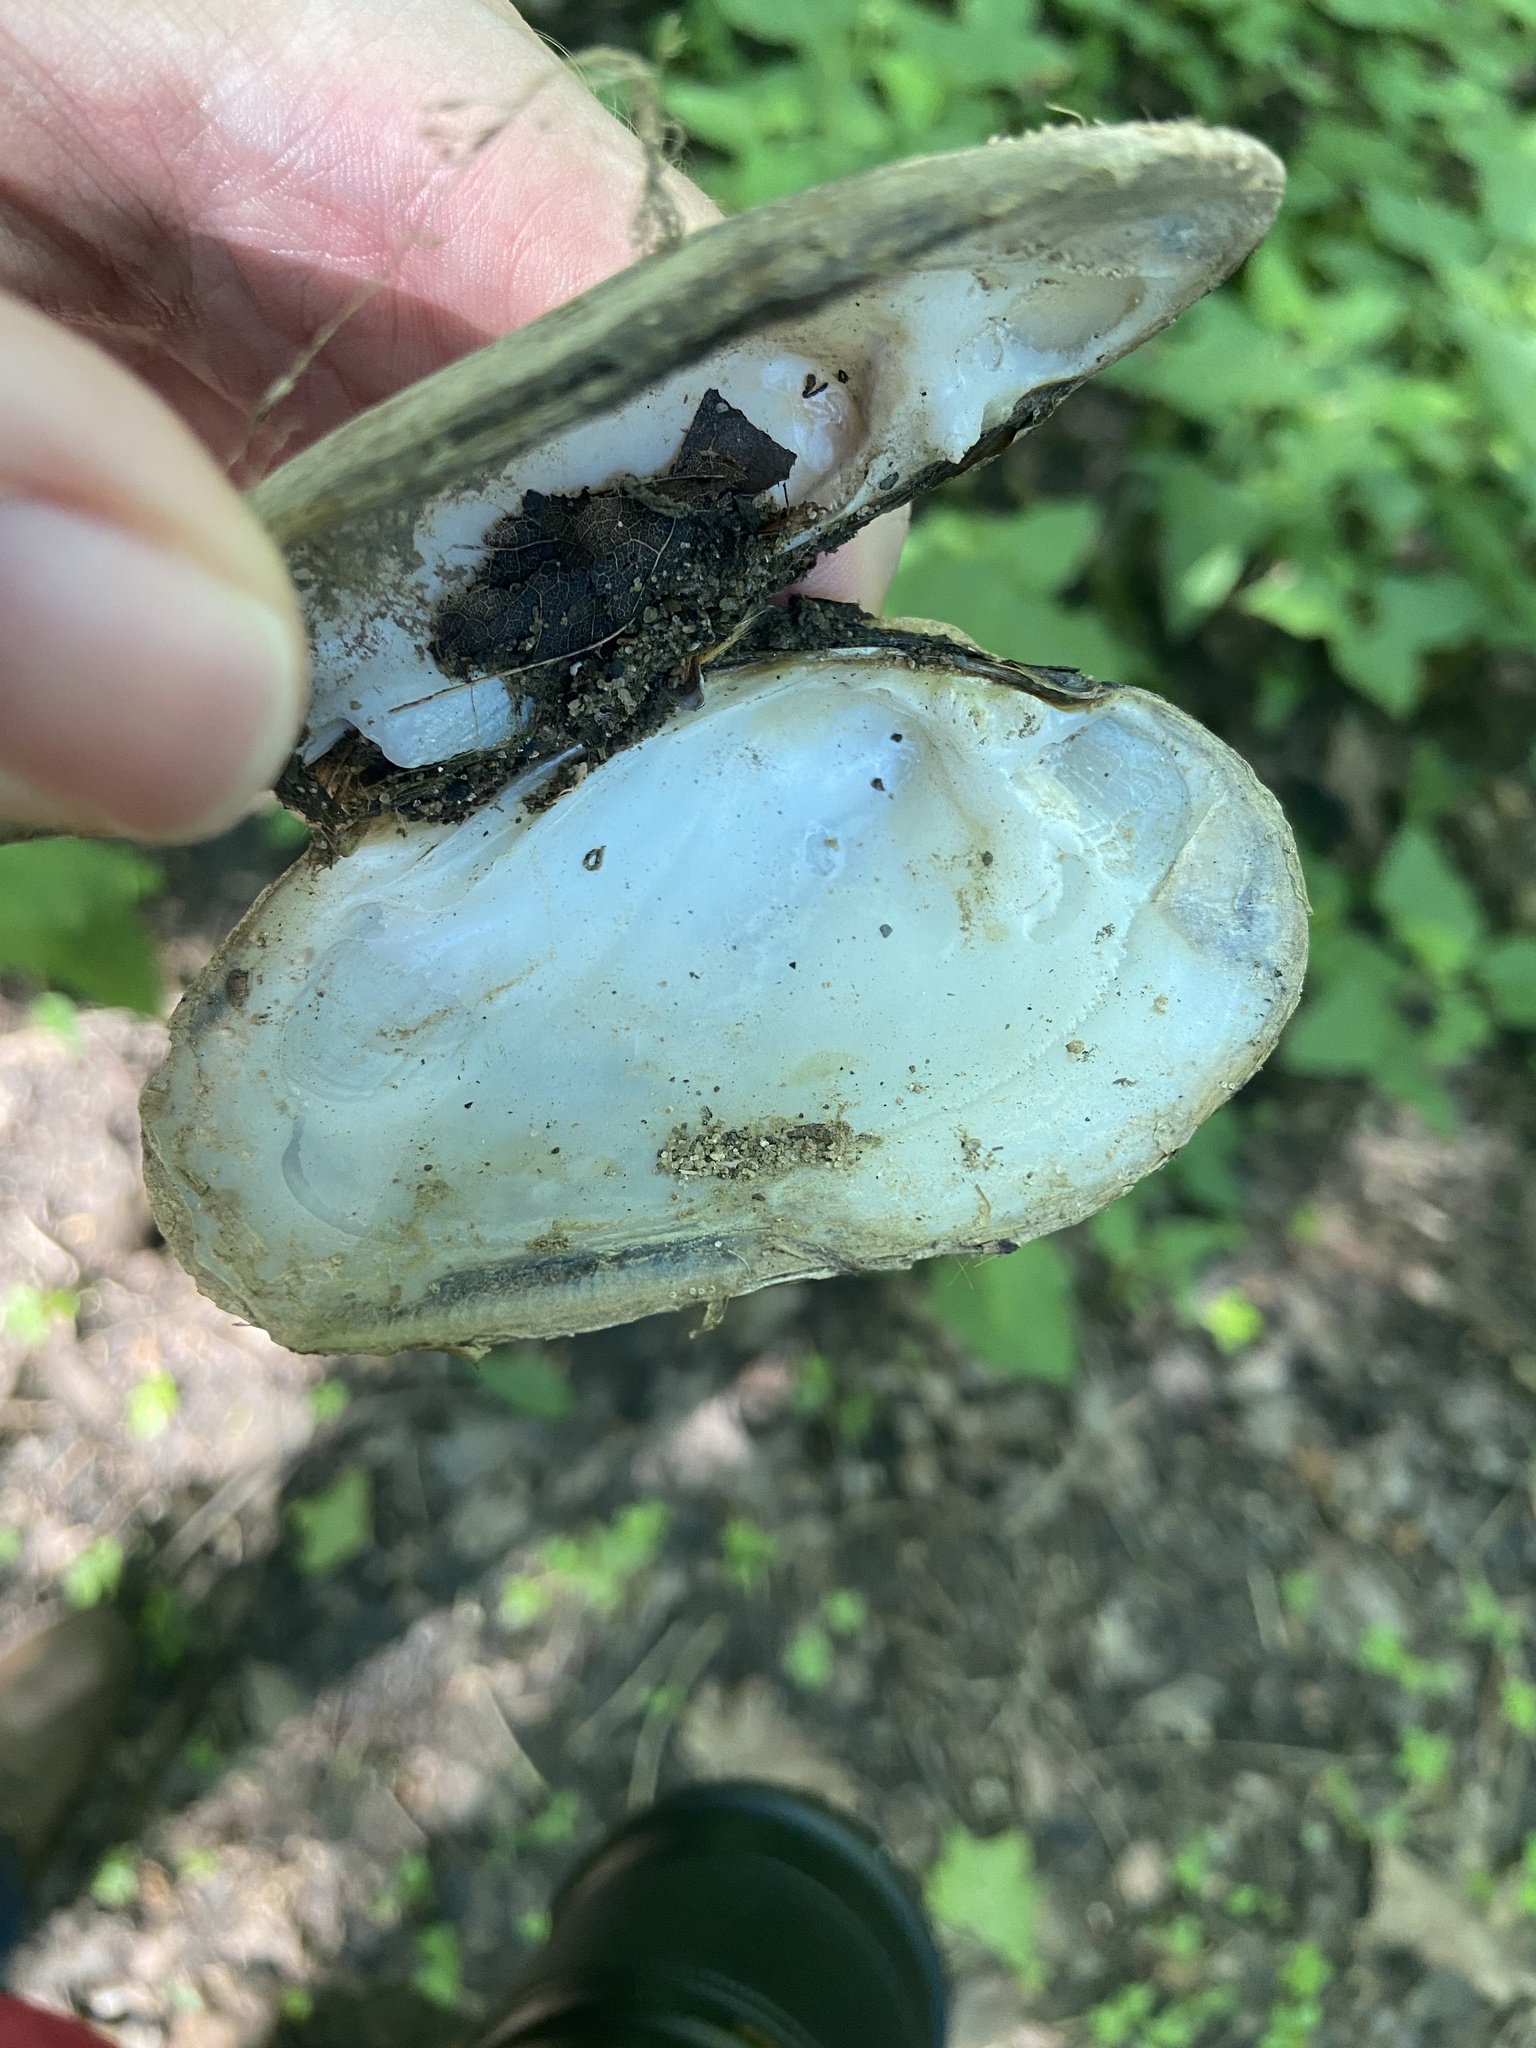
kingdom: Animalia
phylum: Mollusca
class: Bivalvia
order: Unionida
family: Unionidae
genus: Ptychobranchus
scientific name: Ptychobranchus fasciolaris
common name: Kidneyshell
